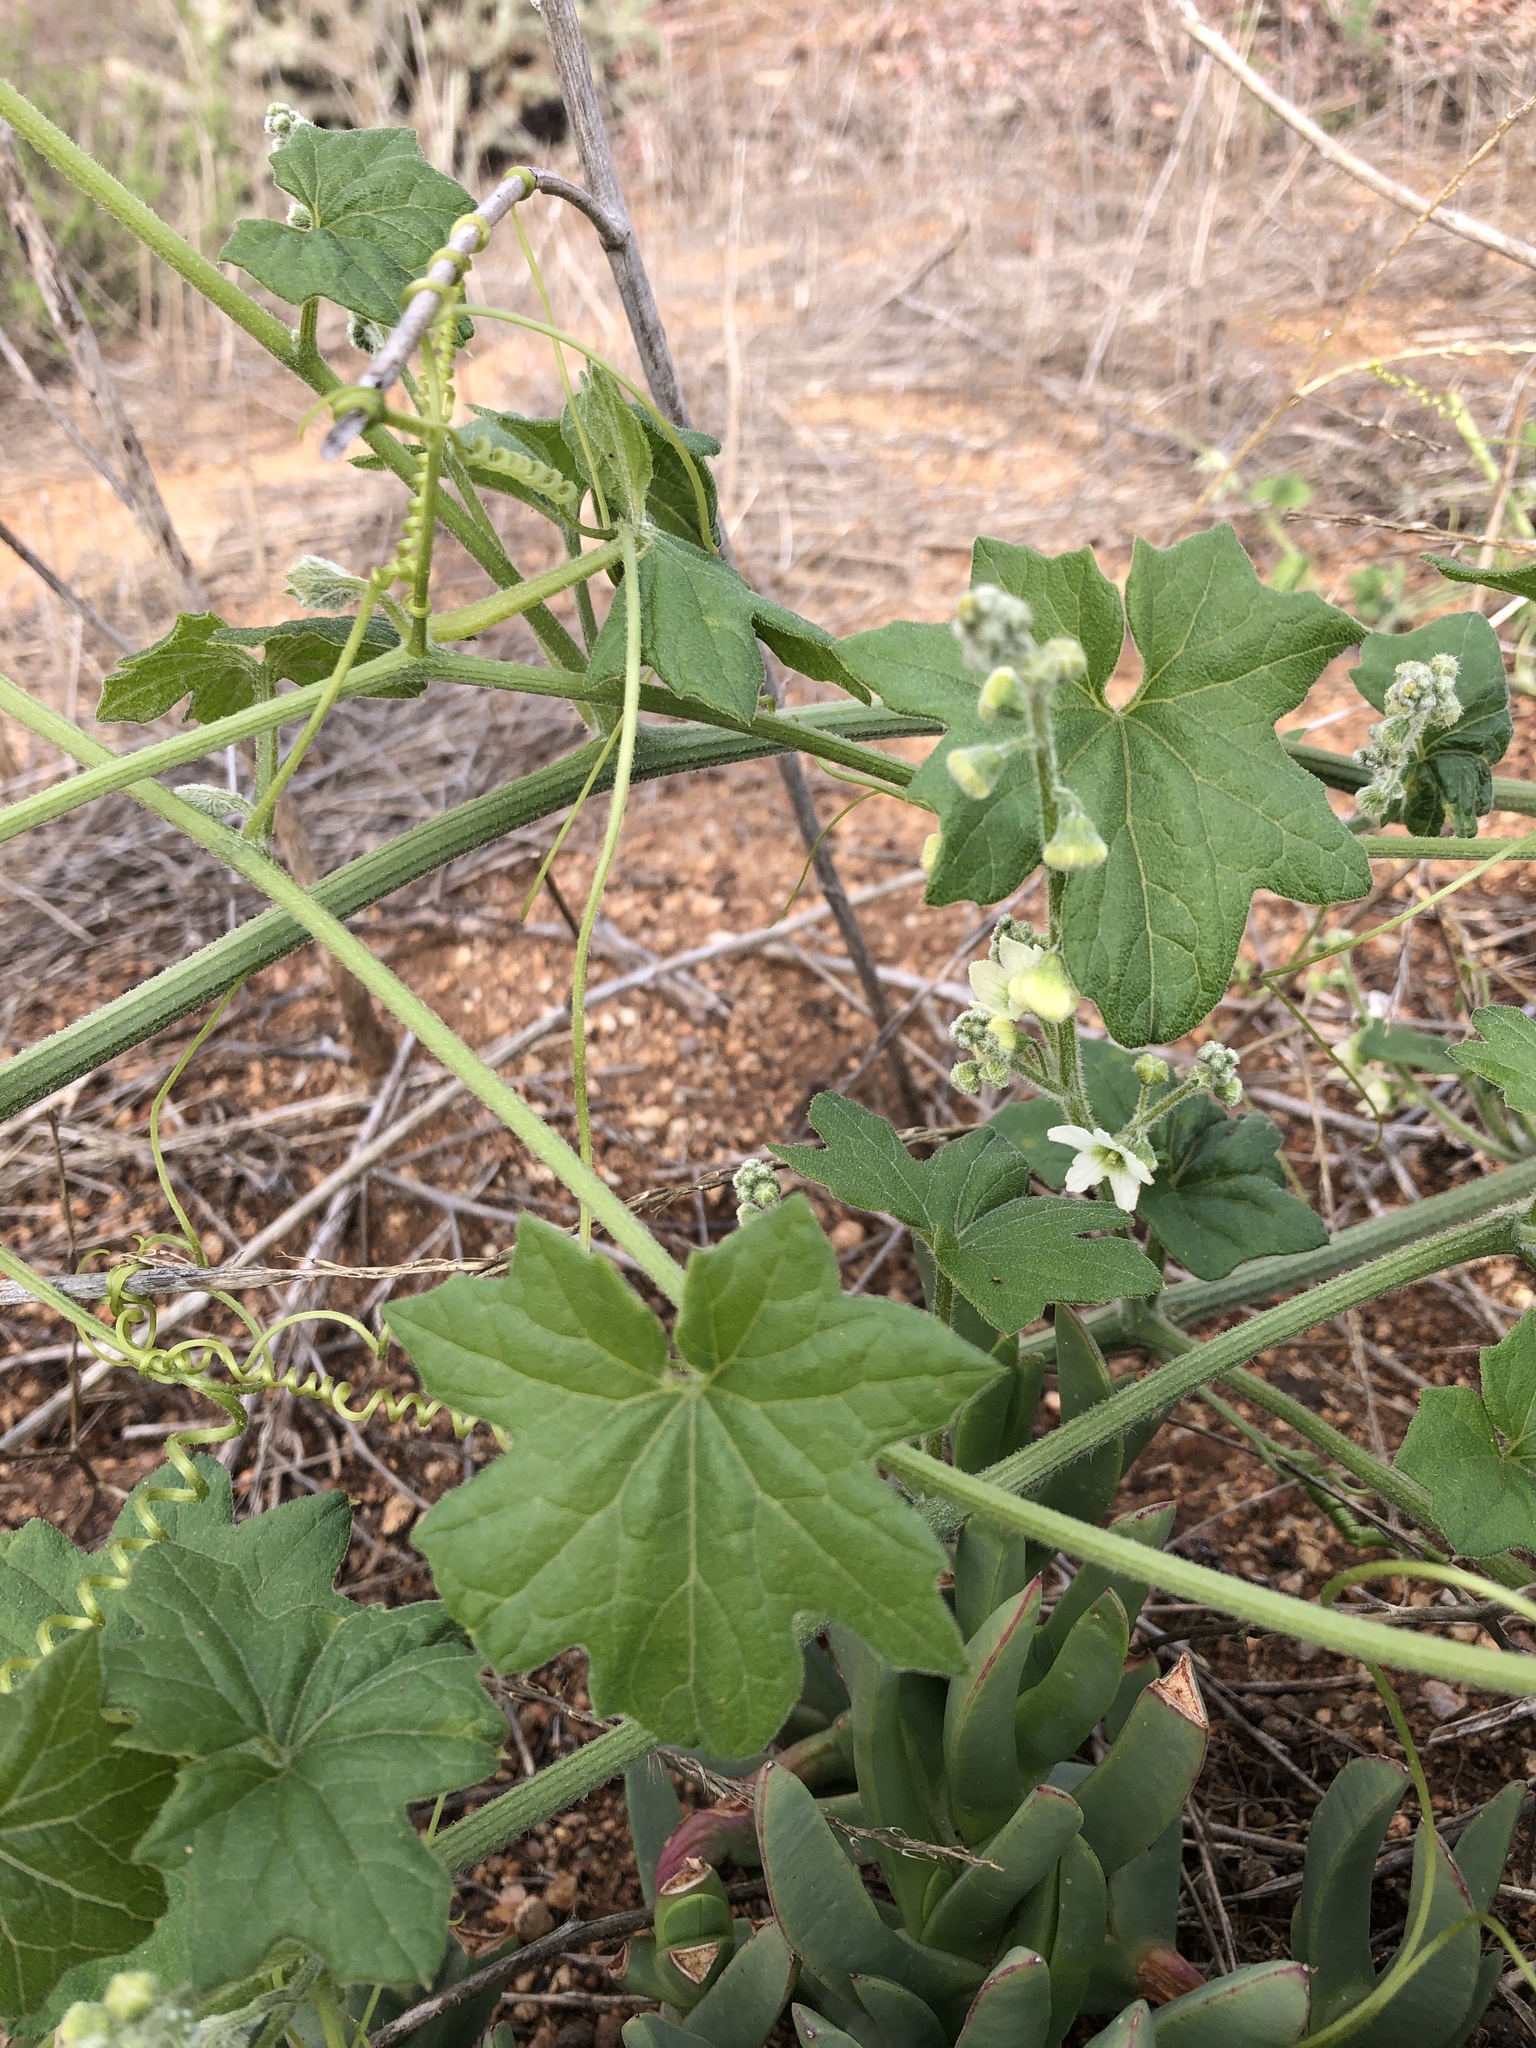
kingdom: Plantae
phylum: Tracheophyta
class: Magnoliopsida
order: Cucurbitales
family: Cucurbitaceae
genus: Marah
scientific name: Marah macrocarpa
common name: Cucamonga manroot
